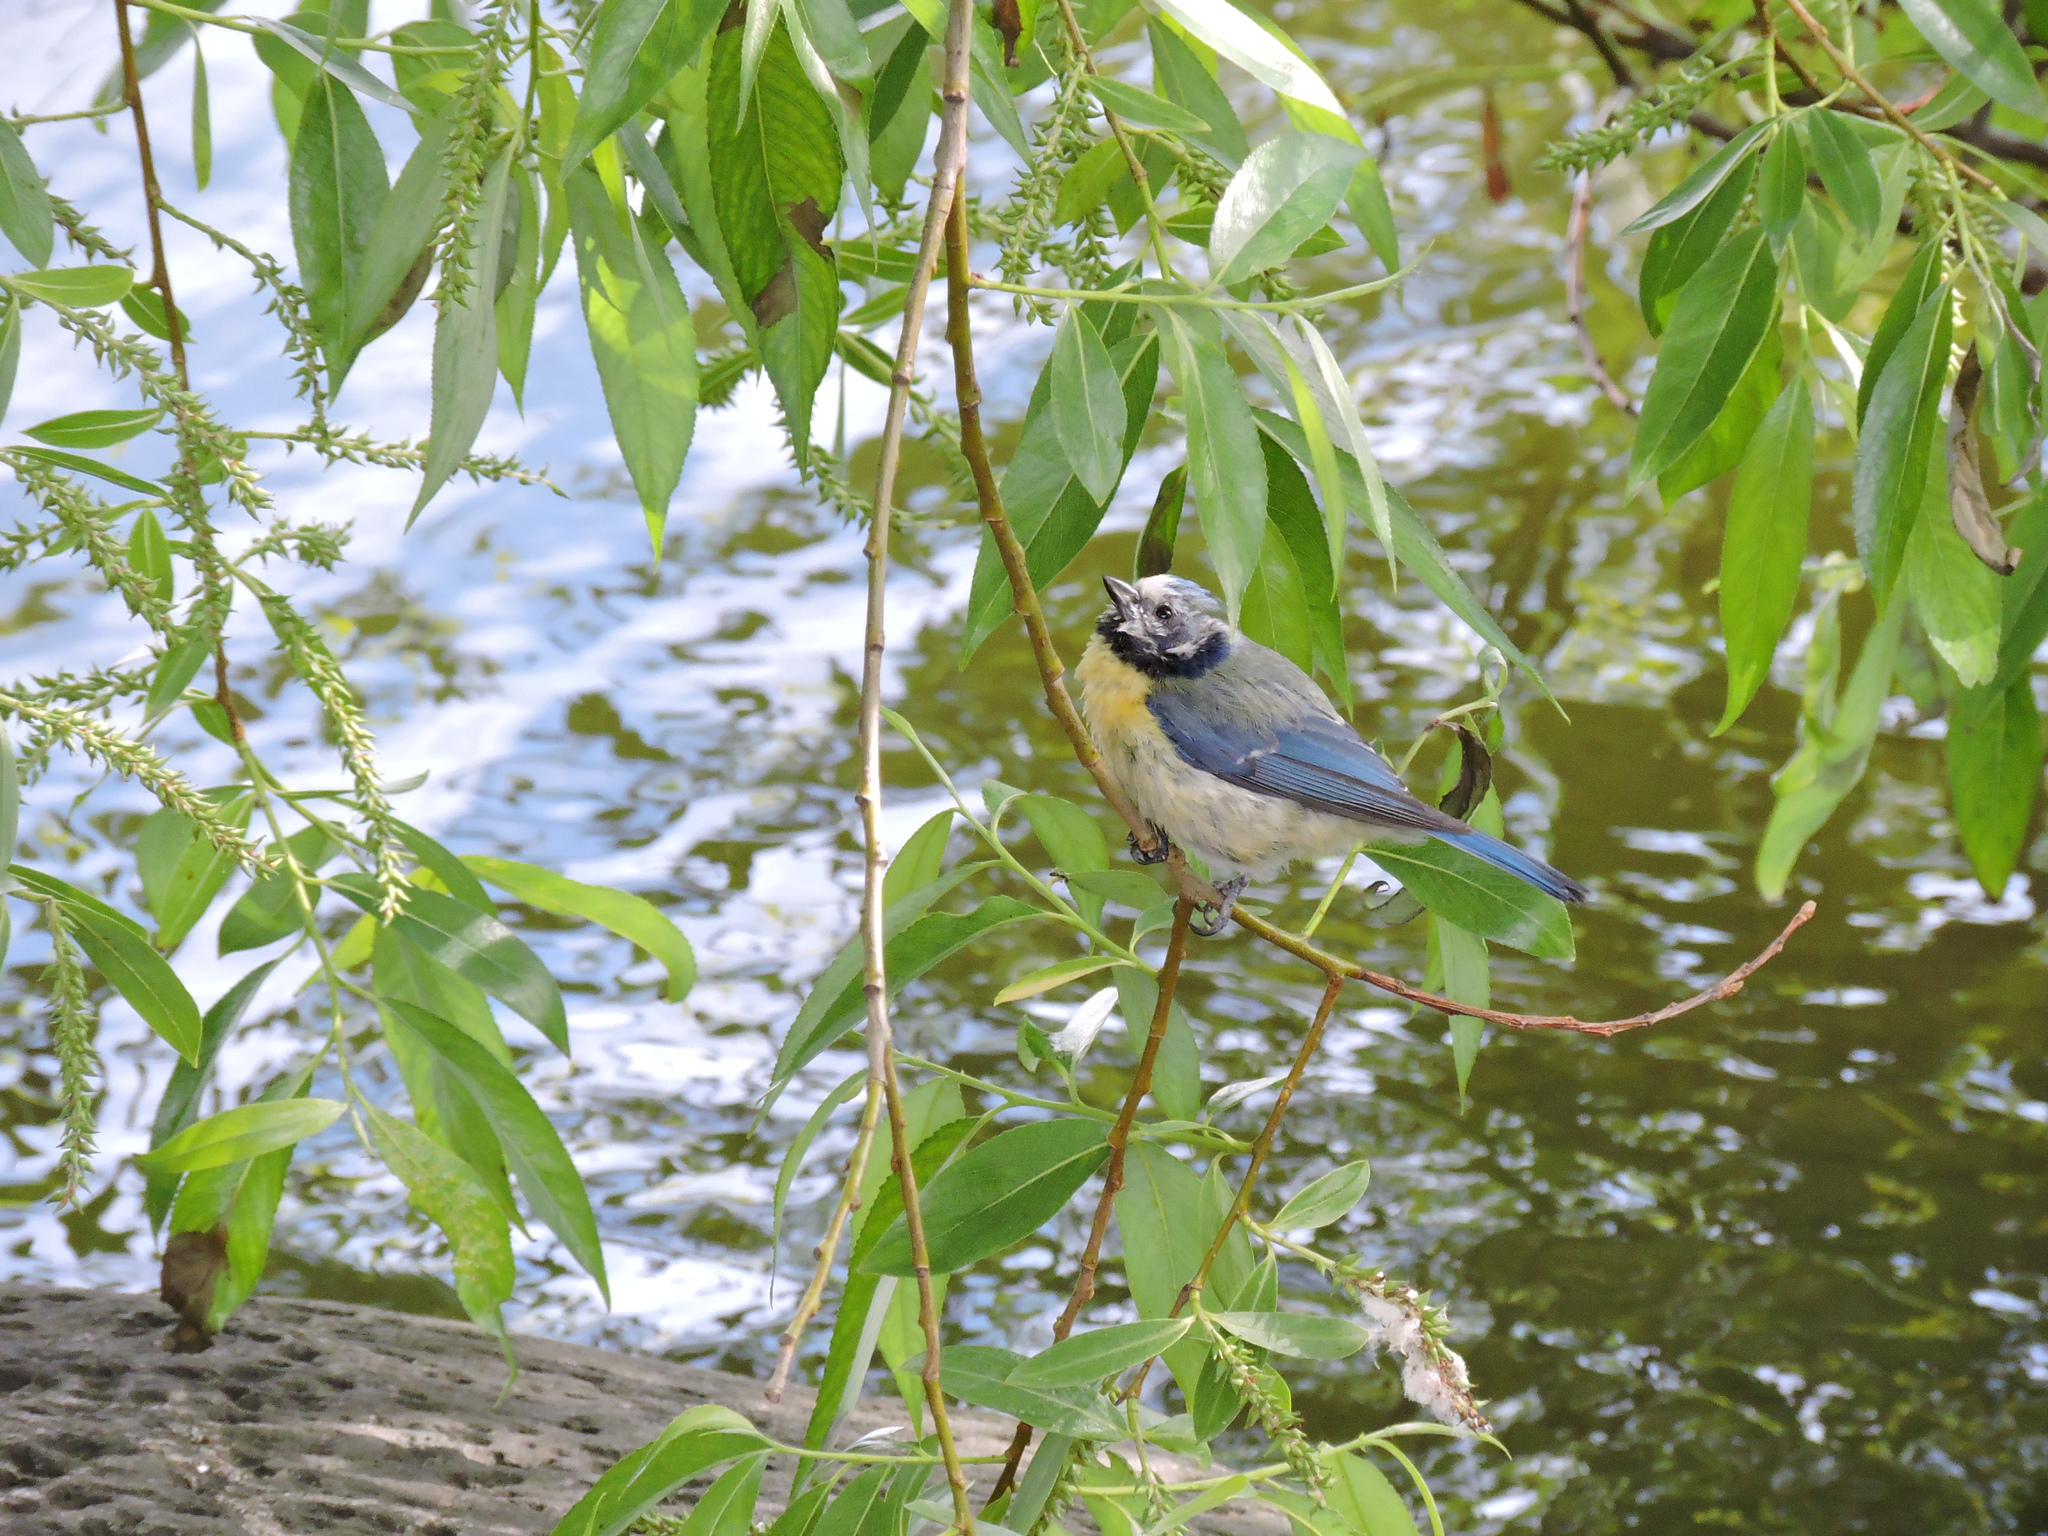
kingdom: Animalia
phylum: Chordata
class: Aves
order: Passeriformes
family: Paridae
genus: Cyanistes
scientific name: Cyanistes caeruleus
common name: Eurasian blue tit
